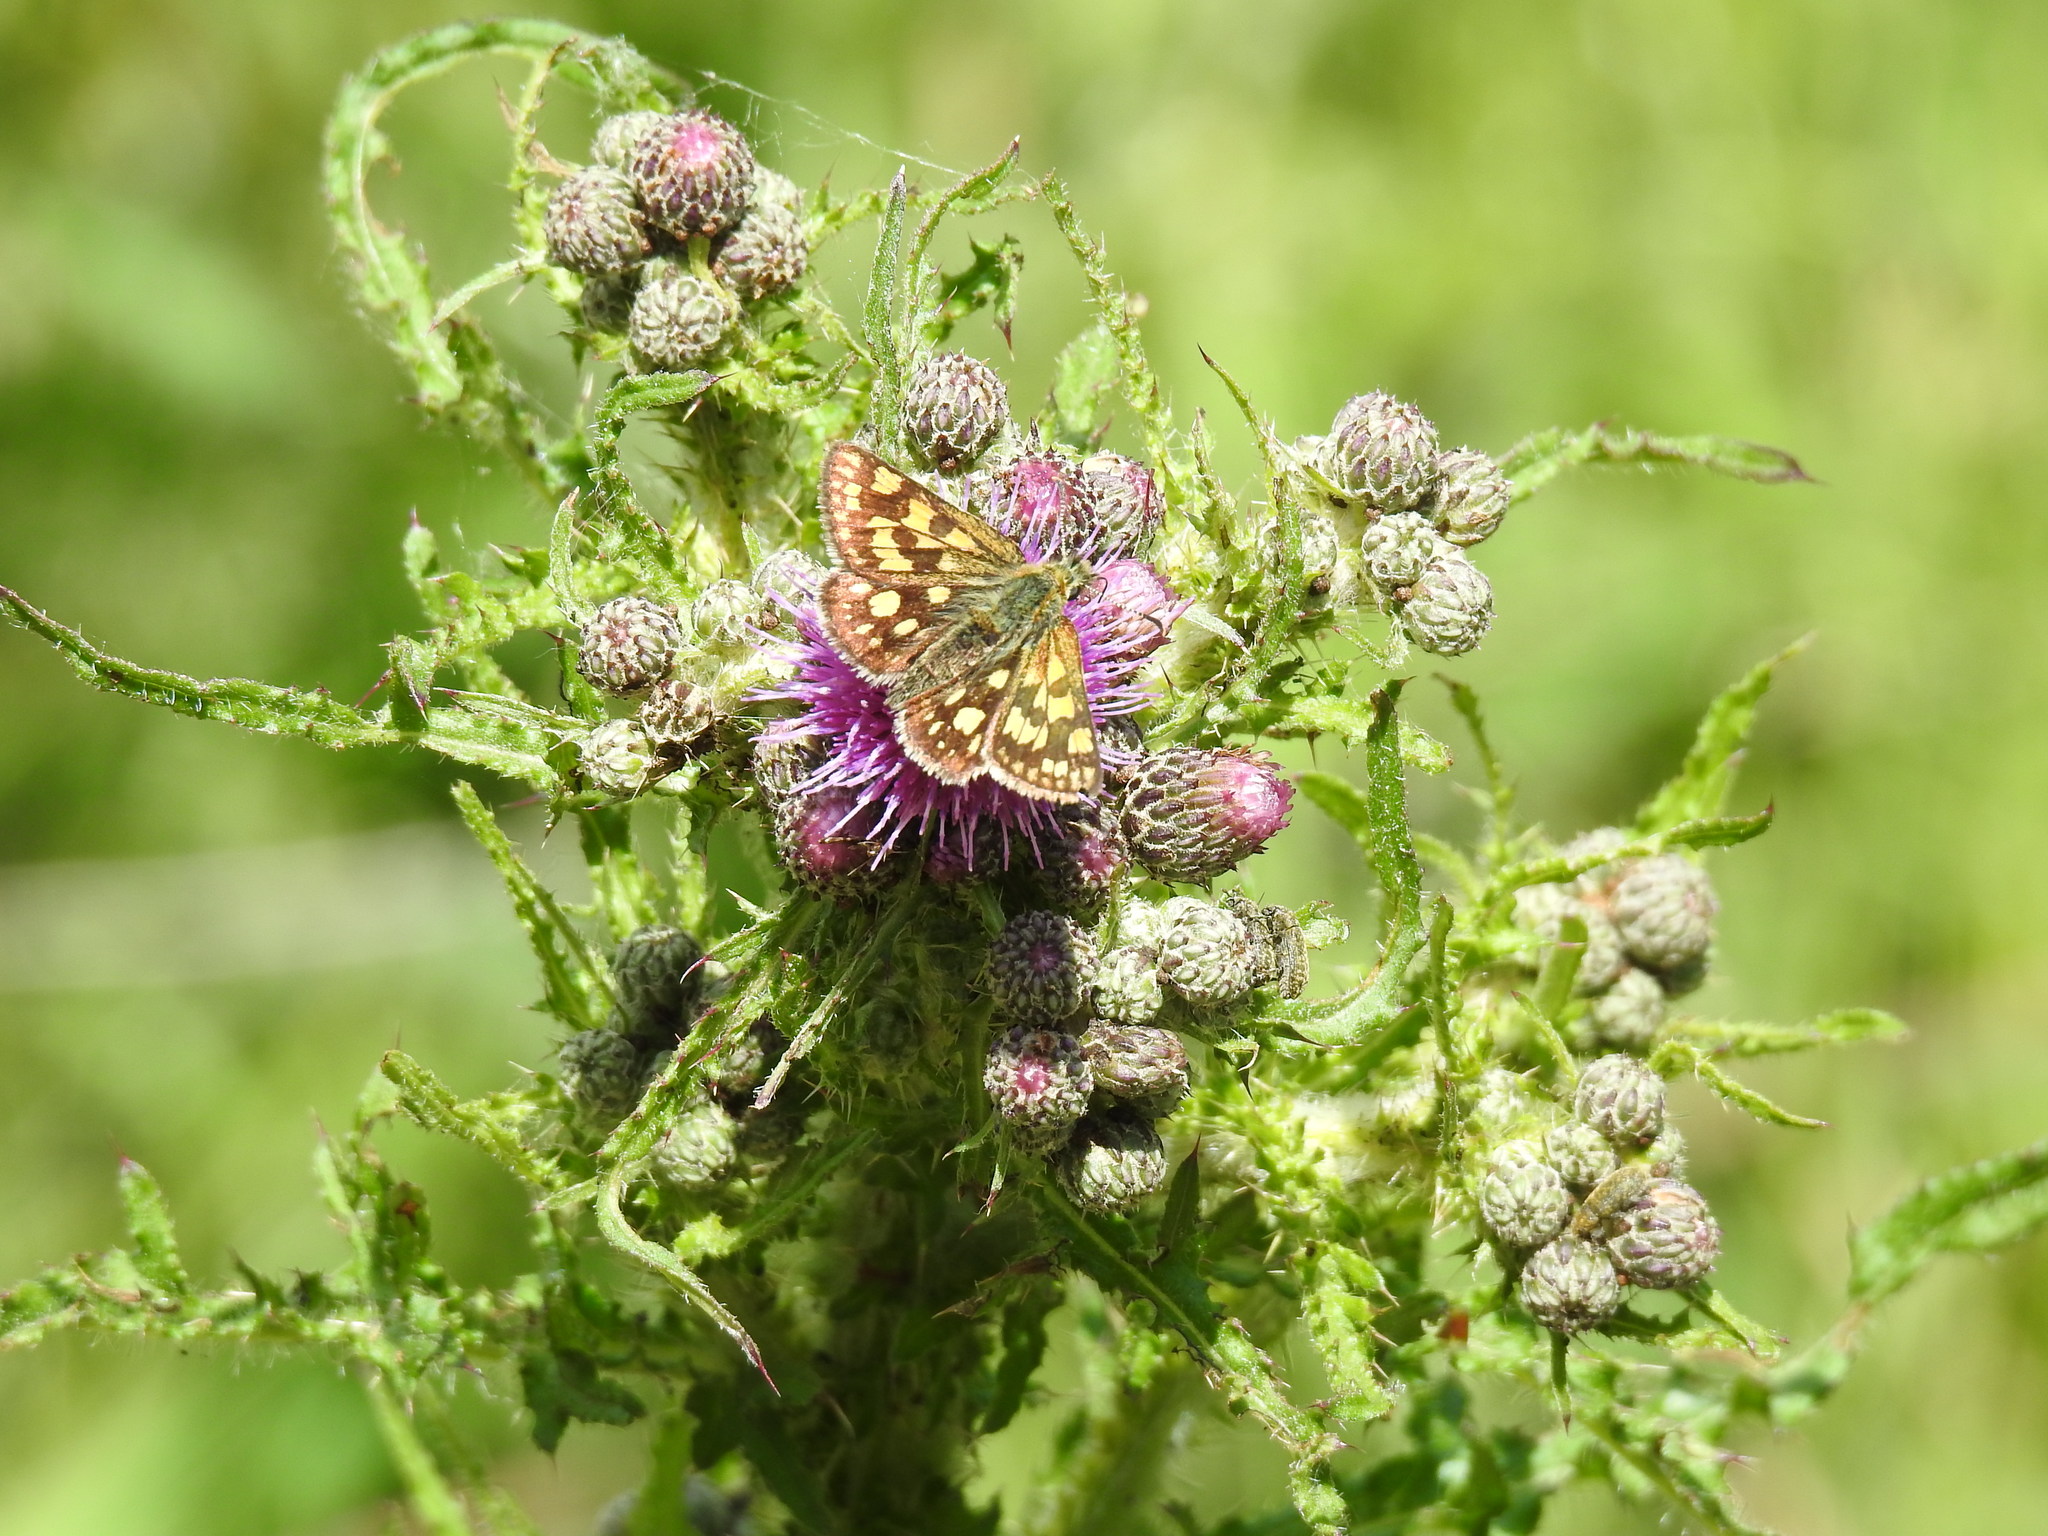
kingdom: Animalia
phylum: Arthropoda
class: Insecta
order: Lepidoptera
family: Hesperiidae
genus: Carterocephalus
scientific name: Carterocephalus palaemon
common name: Chequered skipper
